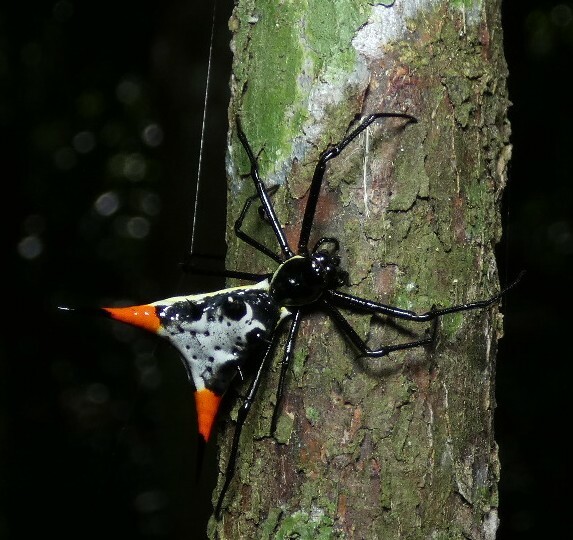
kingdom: Animalia
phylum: Arthropoda
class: Arachnida
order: Araneae
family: Araneidae
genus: Micrathena
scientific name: Micrathena schreibersi
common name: Orb weavers
